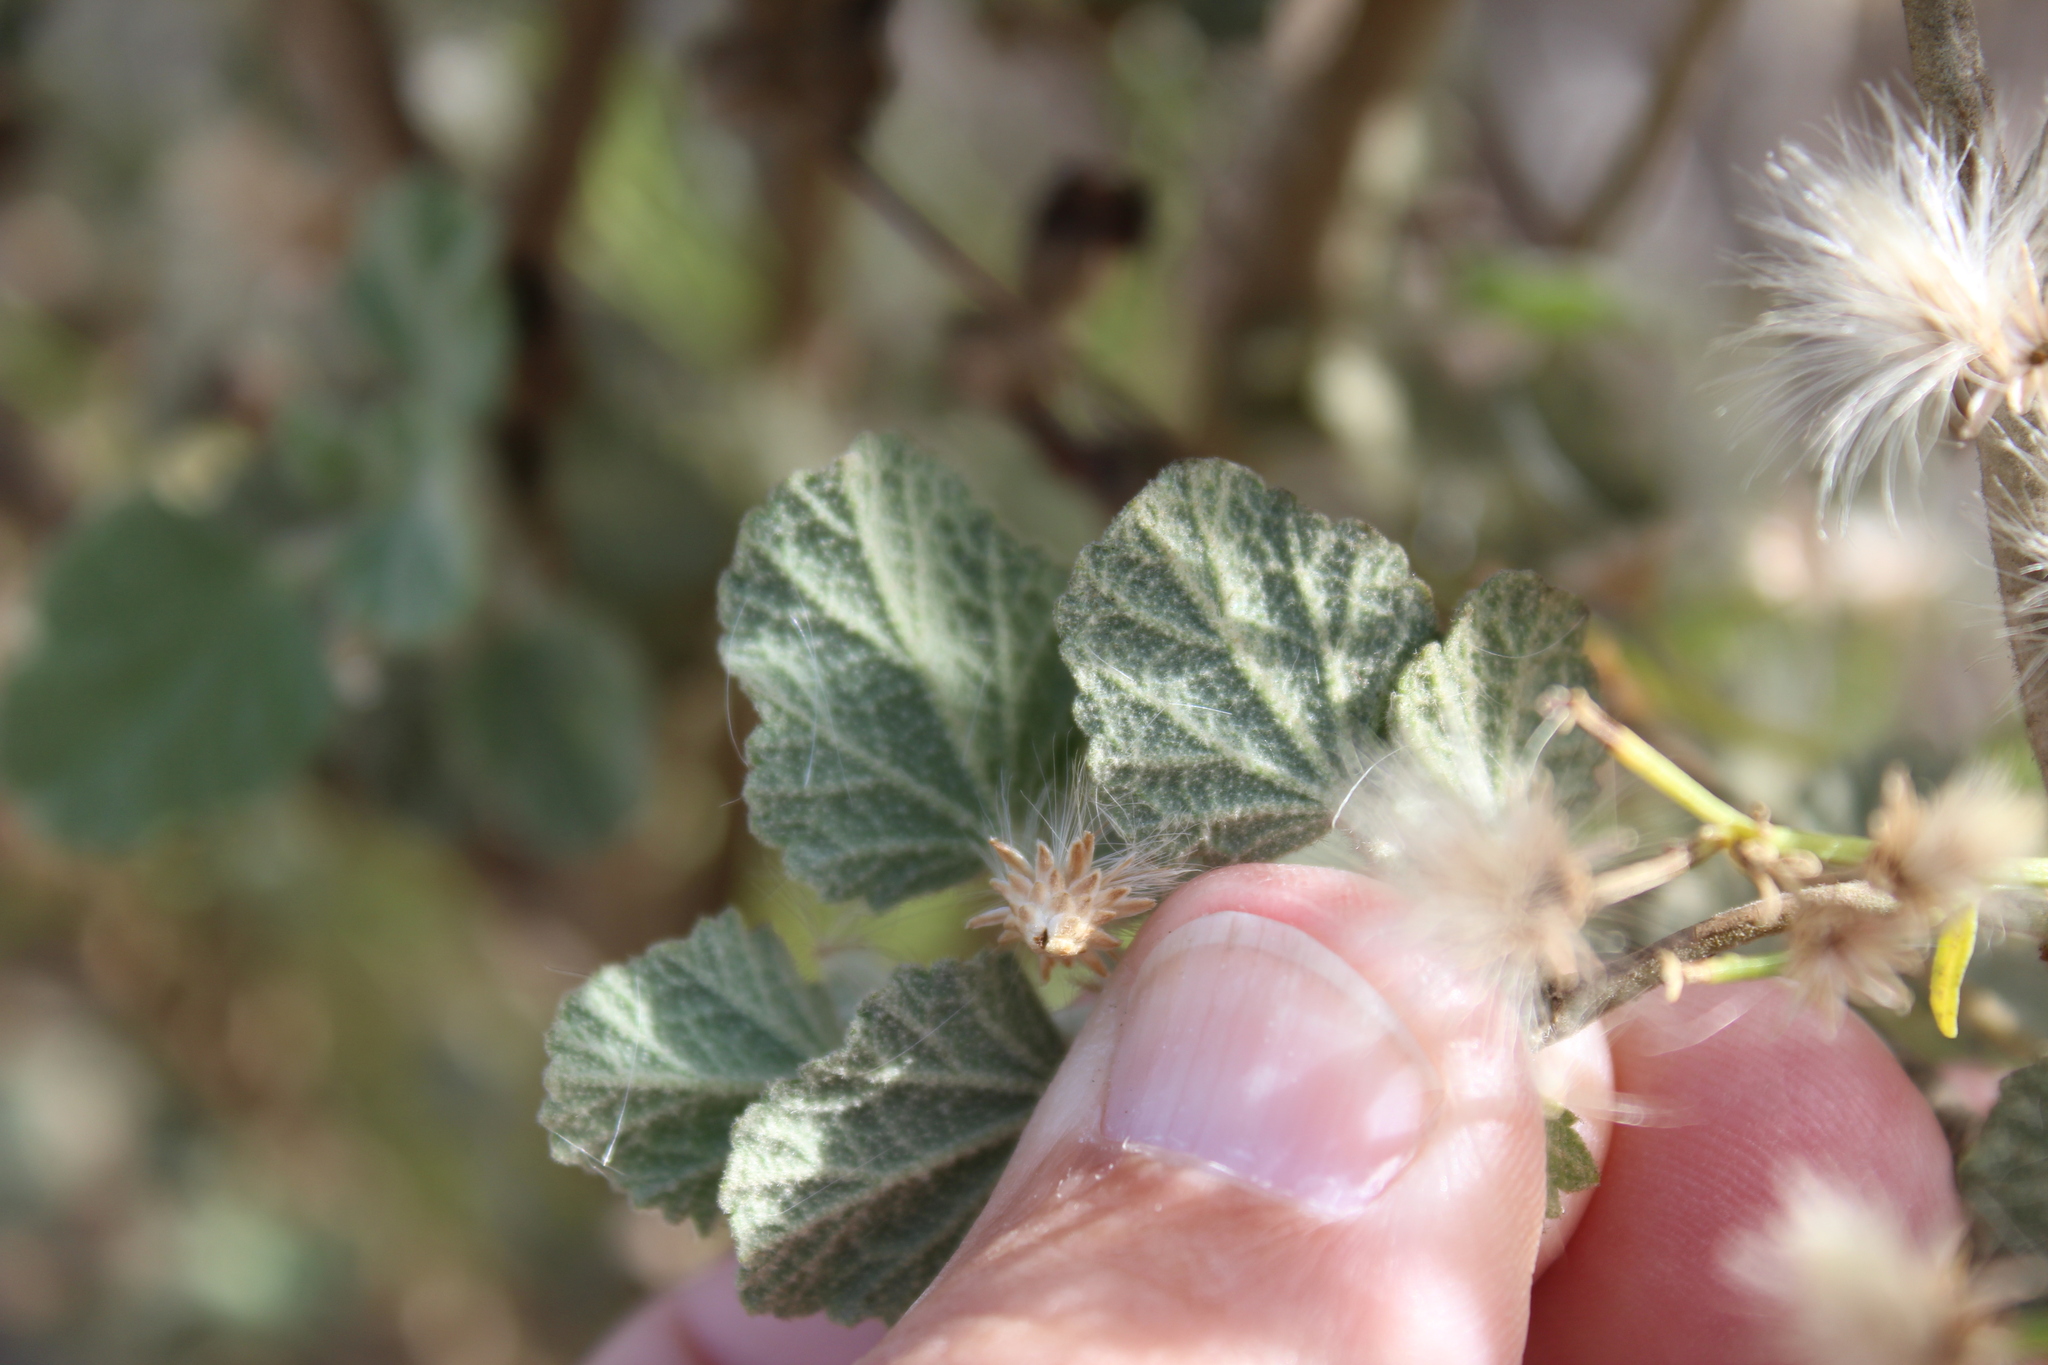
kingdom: Plantae
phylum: Tracheophyta
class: Magnoliopsida
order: Malvales
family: Malvaceae
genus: Malacothamnus
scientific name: Malacothamnus fasciculatus
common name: Sant cruz island bush-mallow
